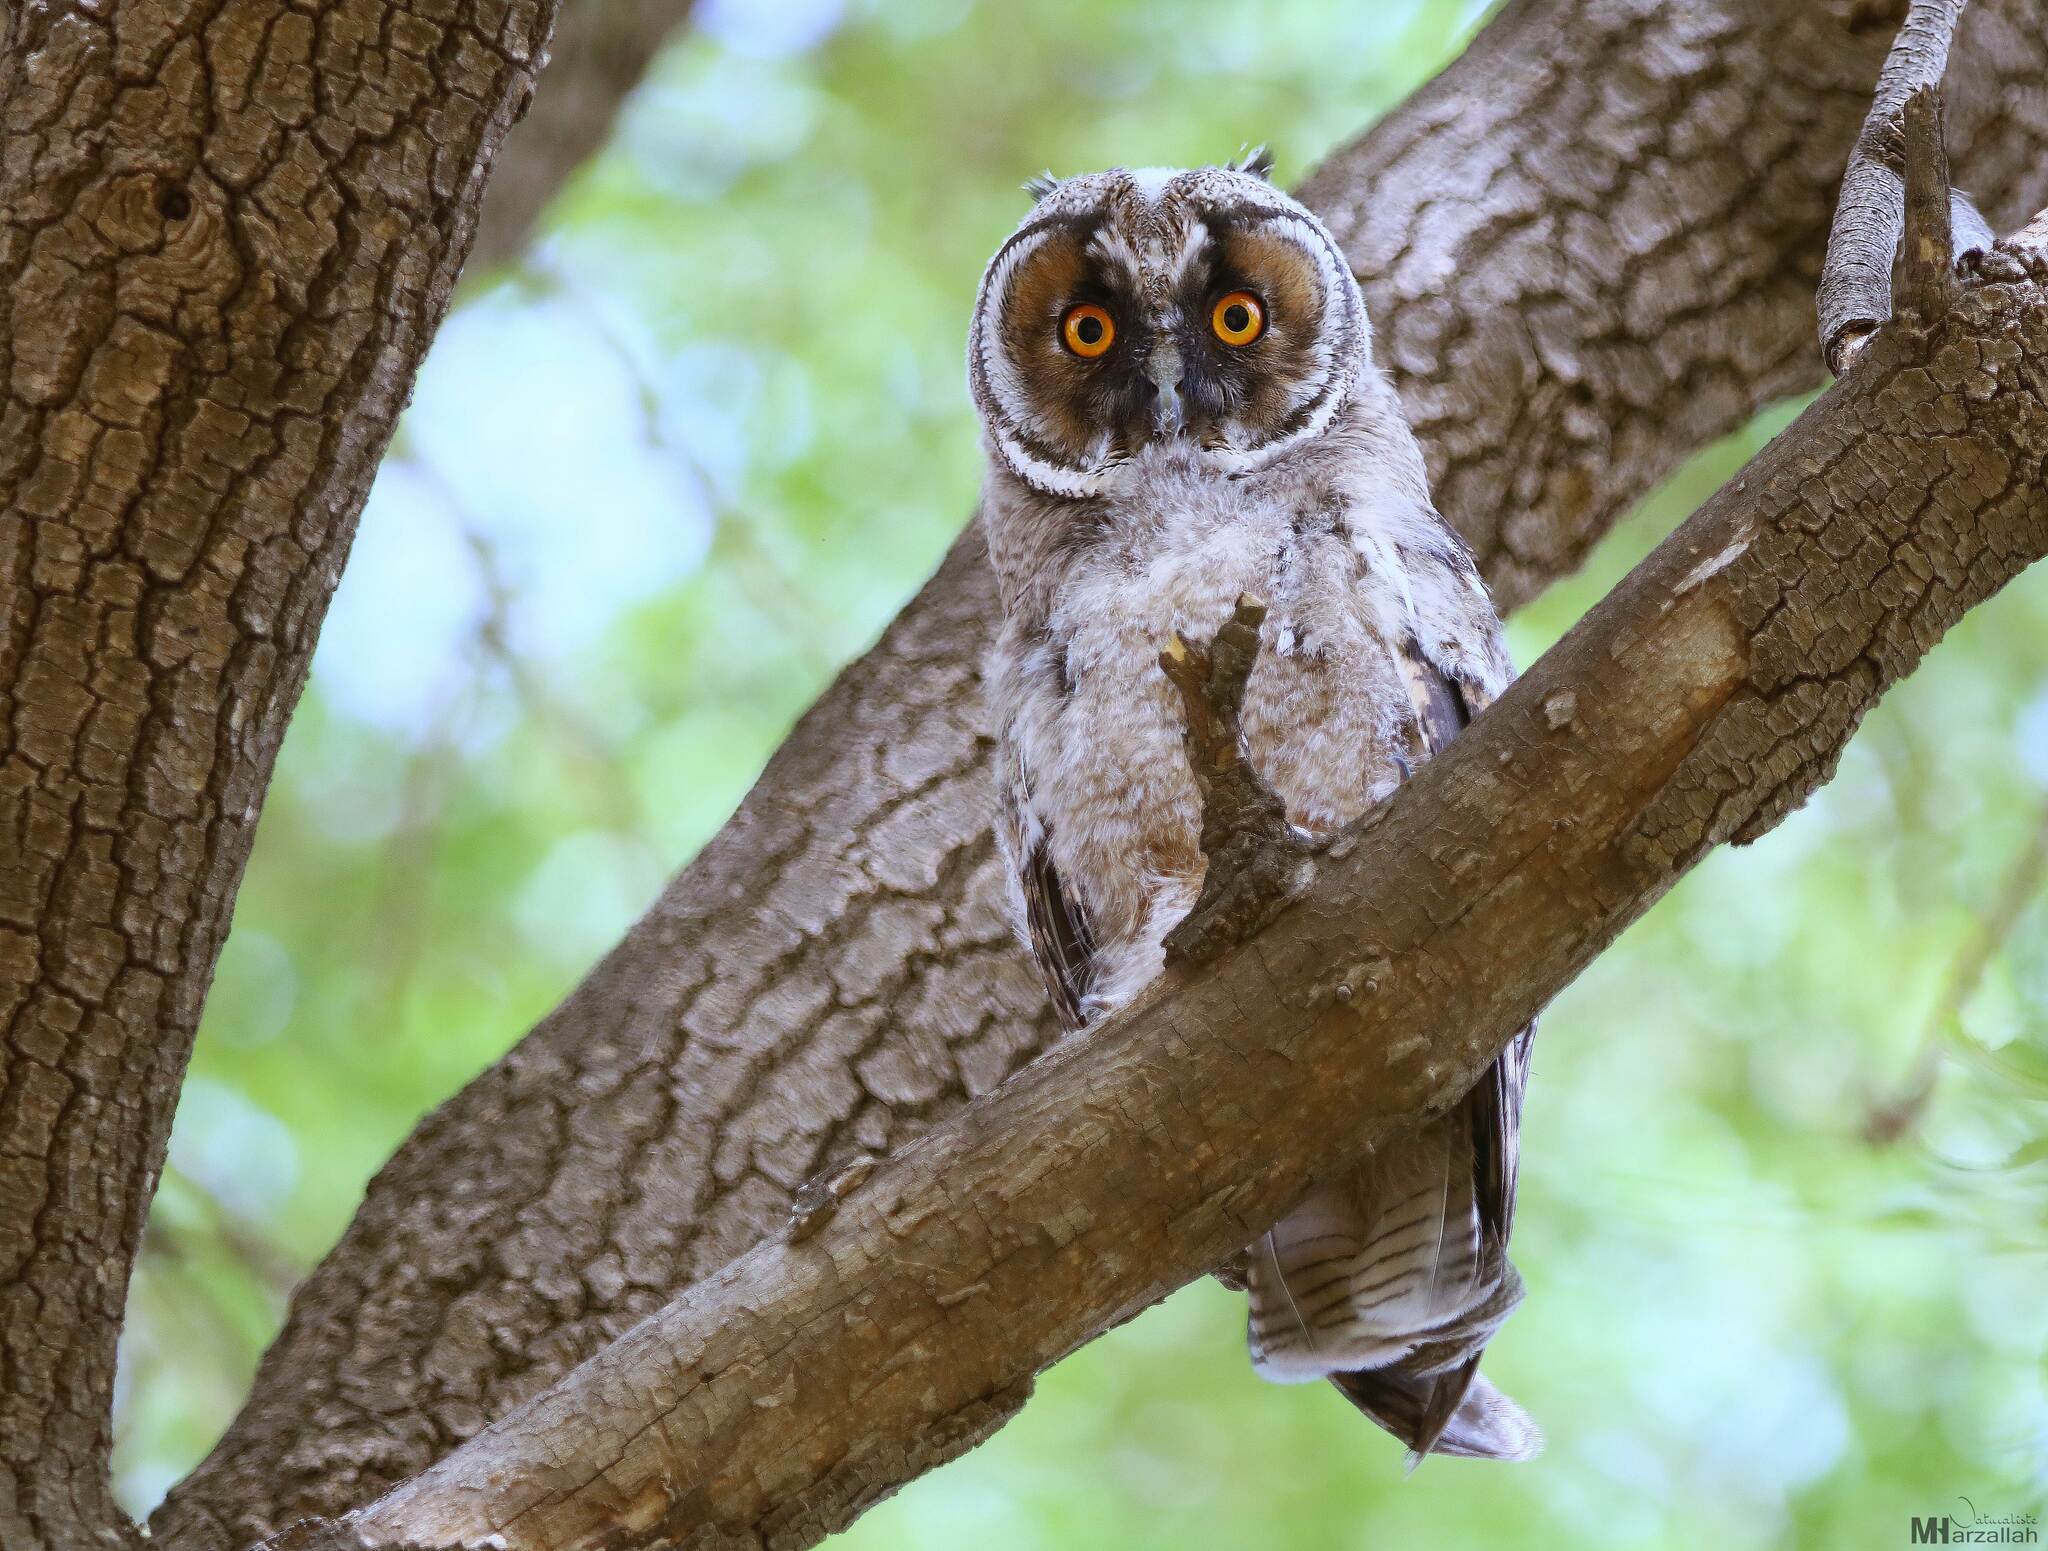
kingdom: Animalia
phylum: Chordata
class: Aves
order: Strigiformes
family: Strigidae
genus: Asio
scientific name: Asio otus
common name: Long-eared owl
